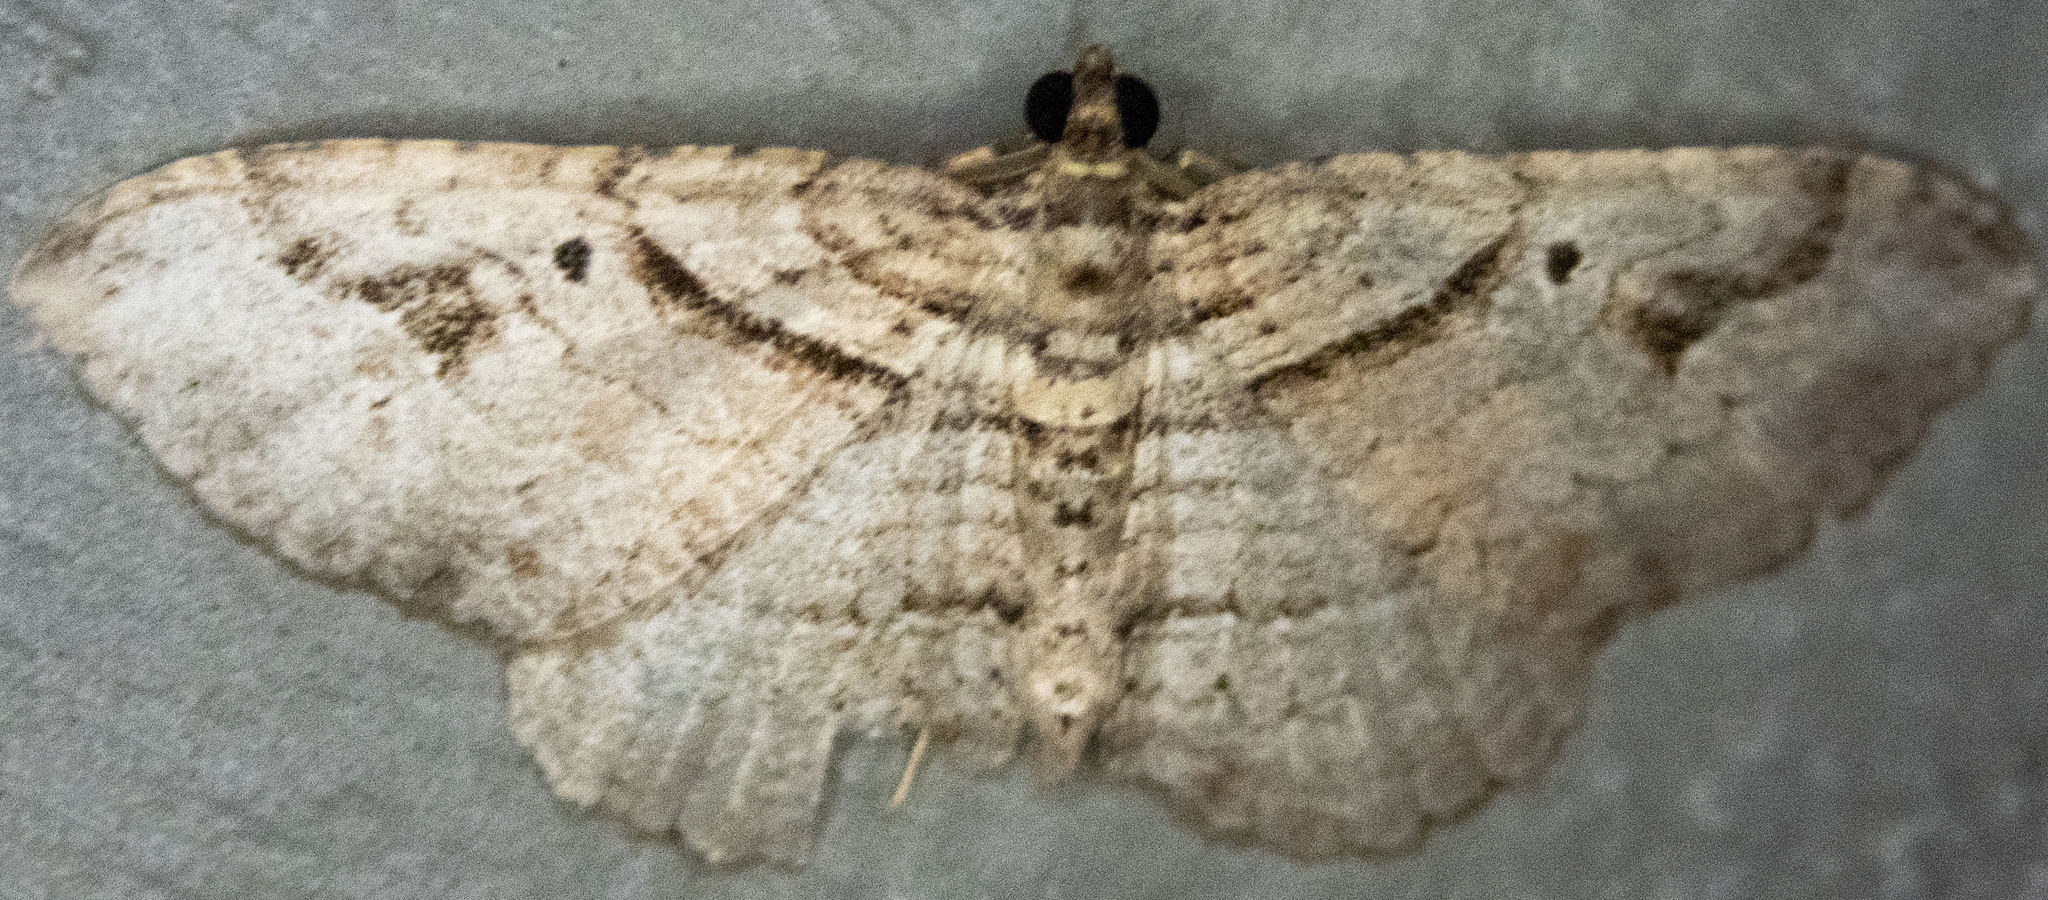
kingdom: Animalia
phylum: Arthropoda
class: Insecta
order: Lepidoptera
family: Geometridae
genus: Costaconvexa
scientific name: Costaconvexa centrostrigaria
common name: Bent-line carpet
